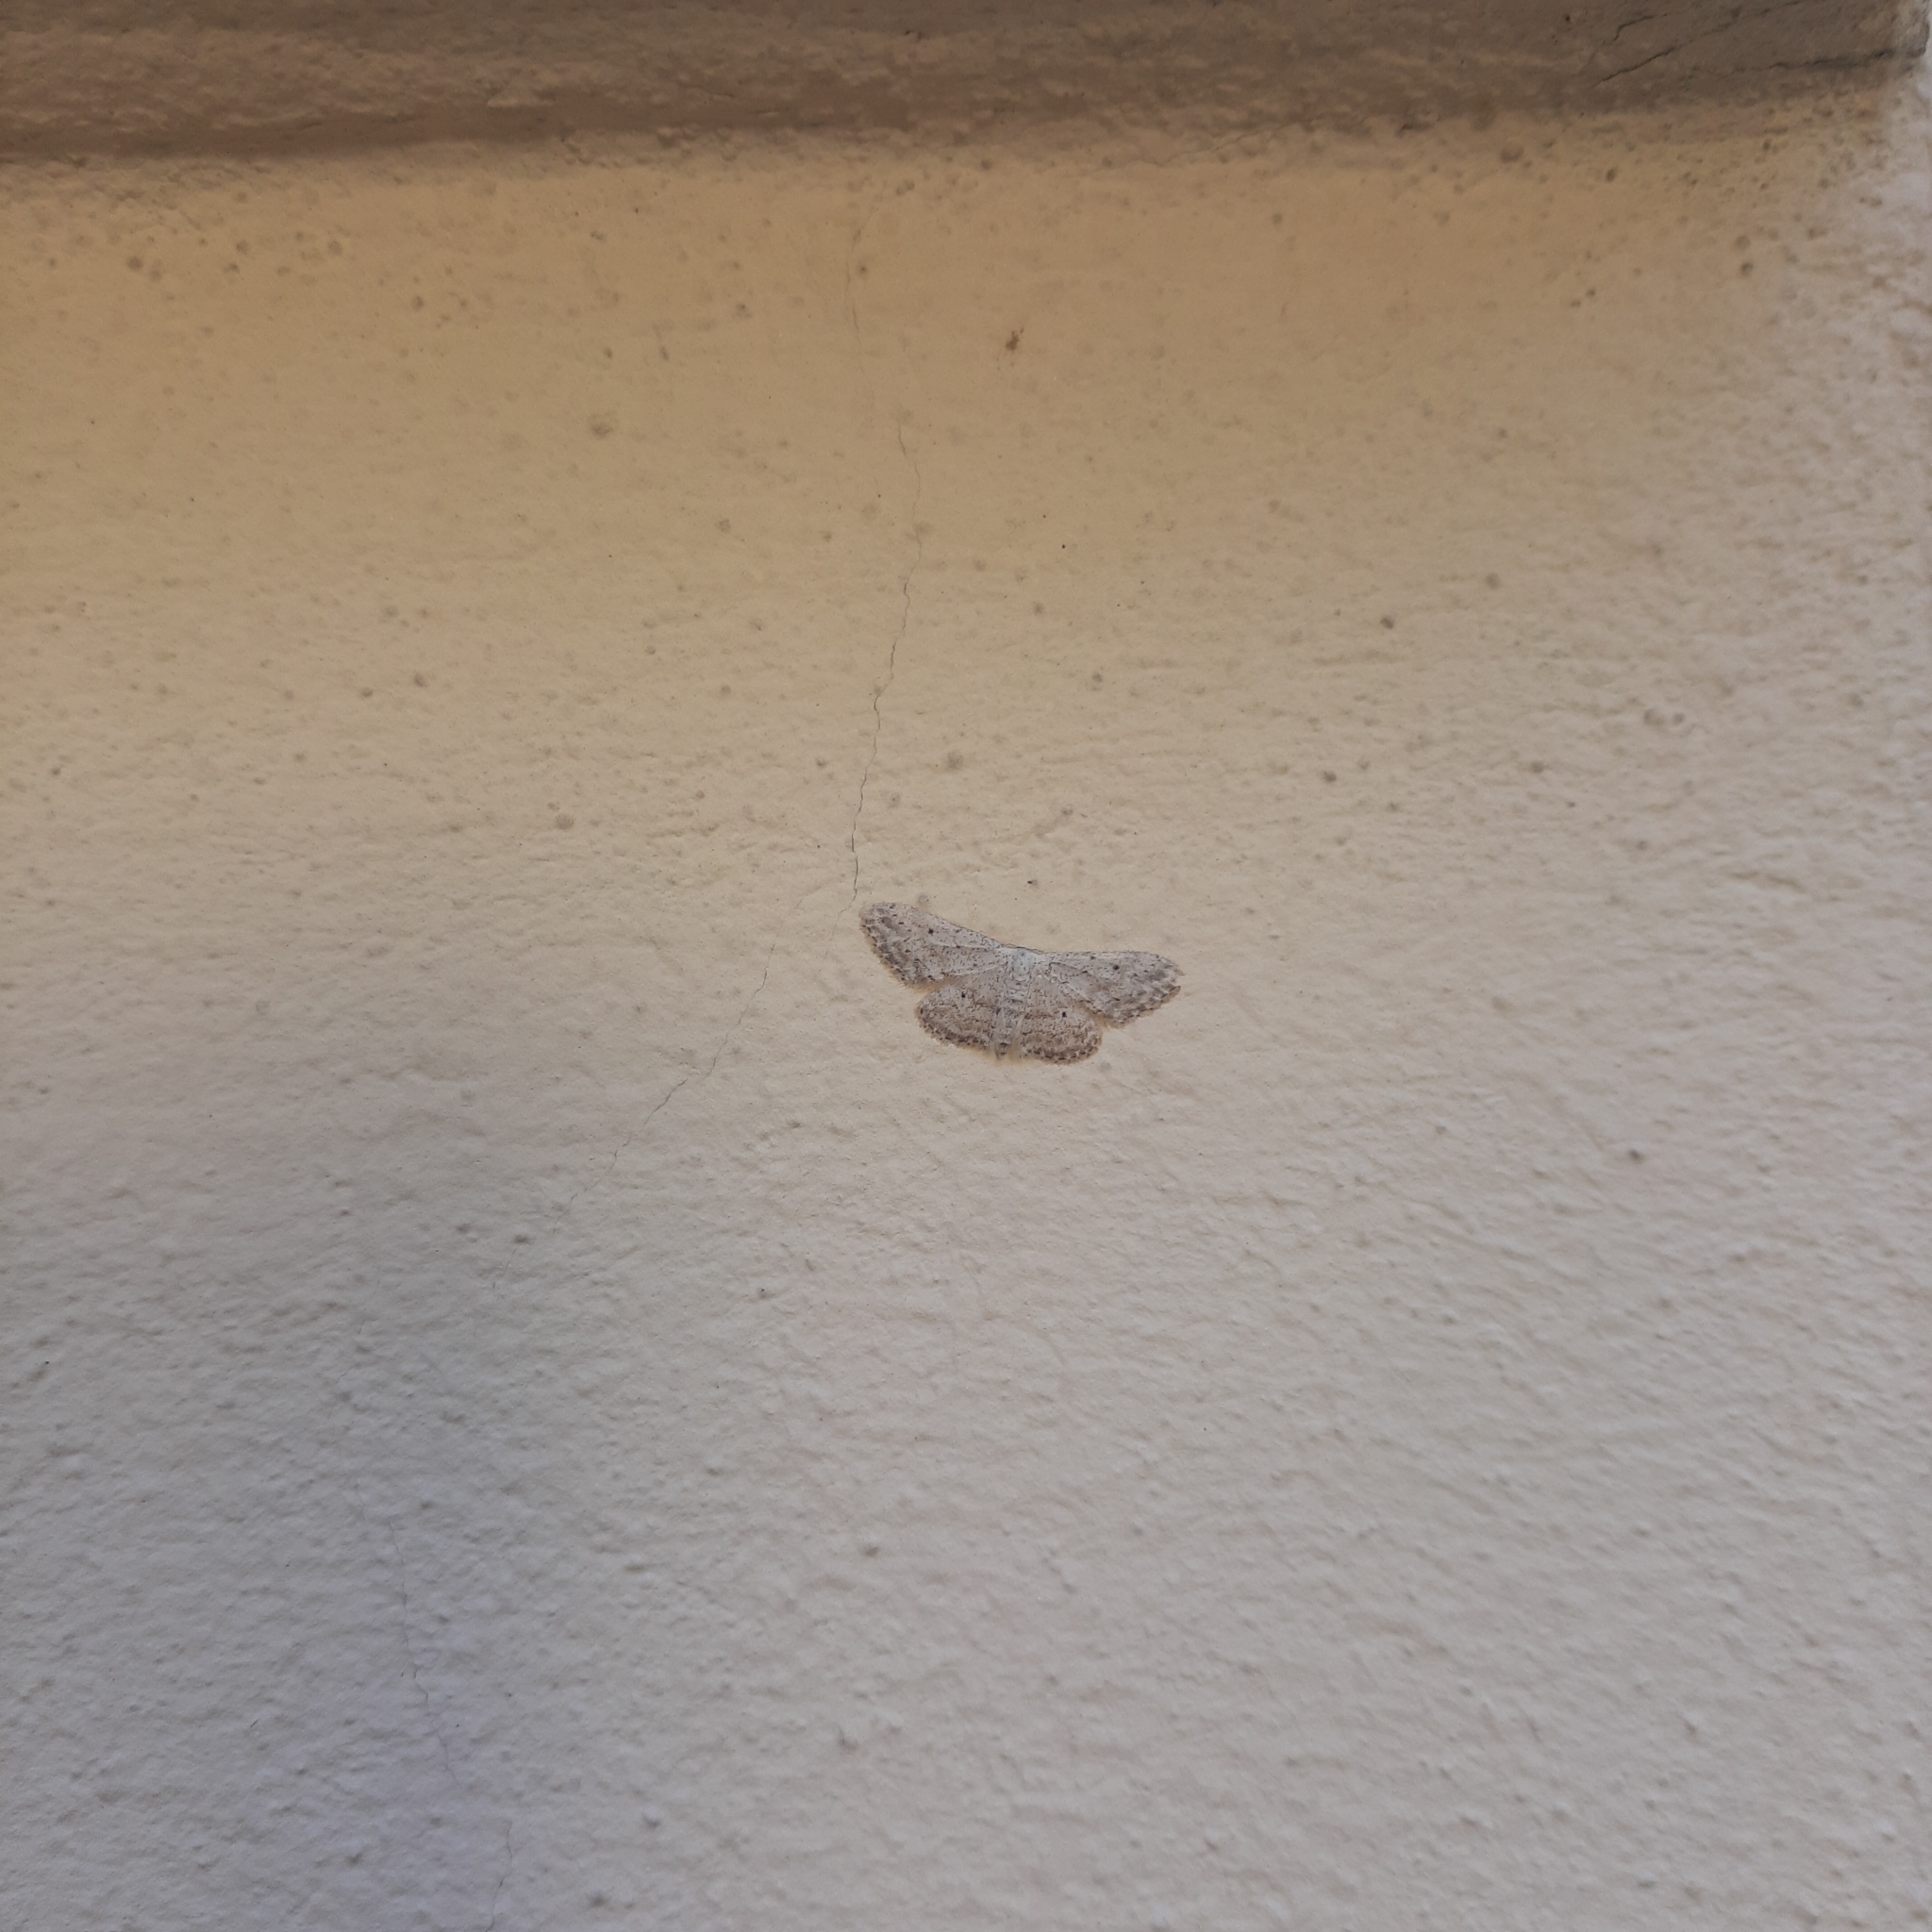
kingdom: Animalia
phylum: Arthropoda
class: Insecta
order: Lepidoptera
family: Geometridae
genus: Idaea
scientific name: Idaea seriata
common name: Small dusty wave
